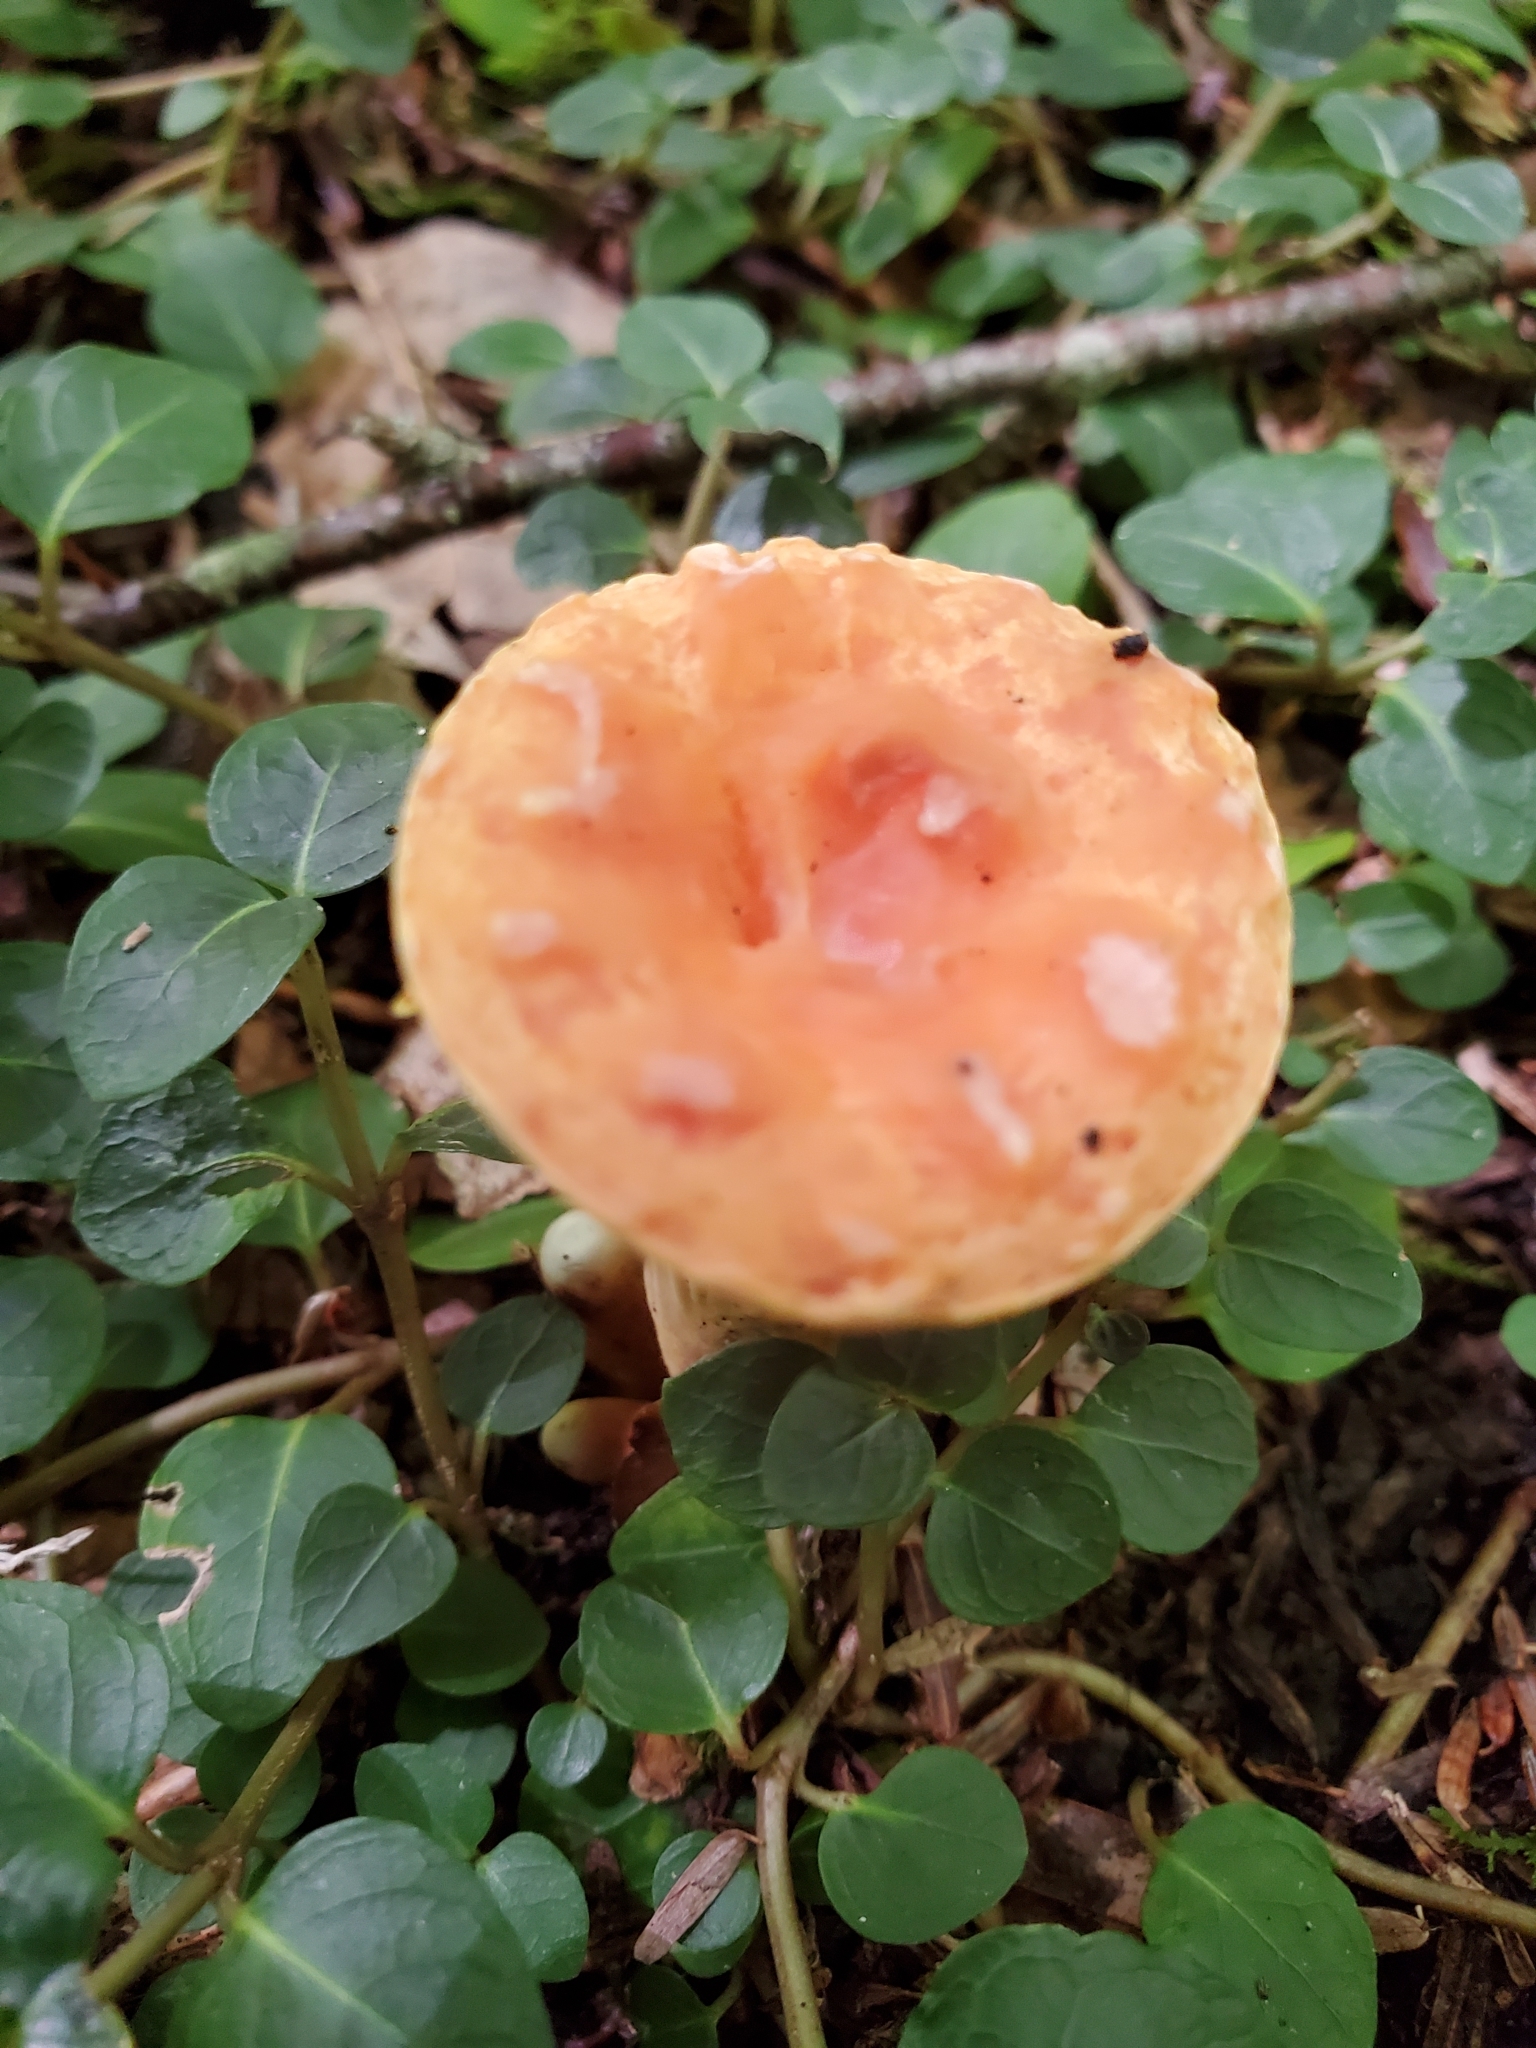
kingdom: Fungi
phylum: Basidiomycota
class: Agaricomycetes
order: Gomphales
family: Gomphaceae
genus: Turbinellus
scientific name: Turbinellus floccosus
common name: Scaly chanterelle
